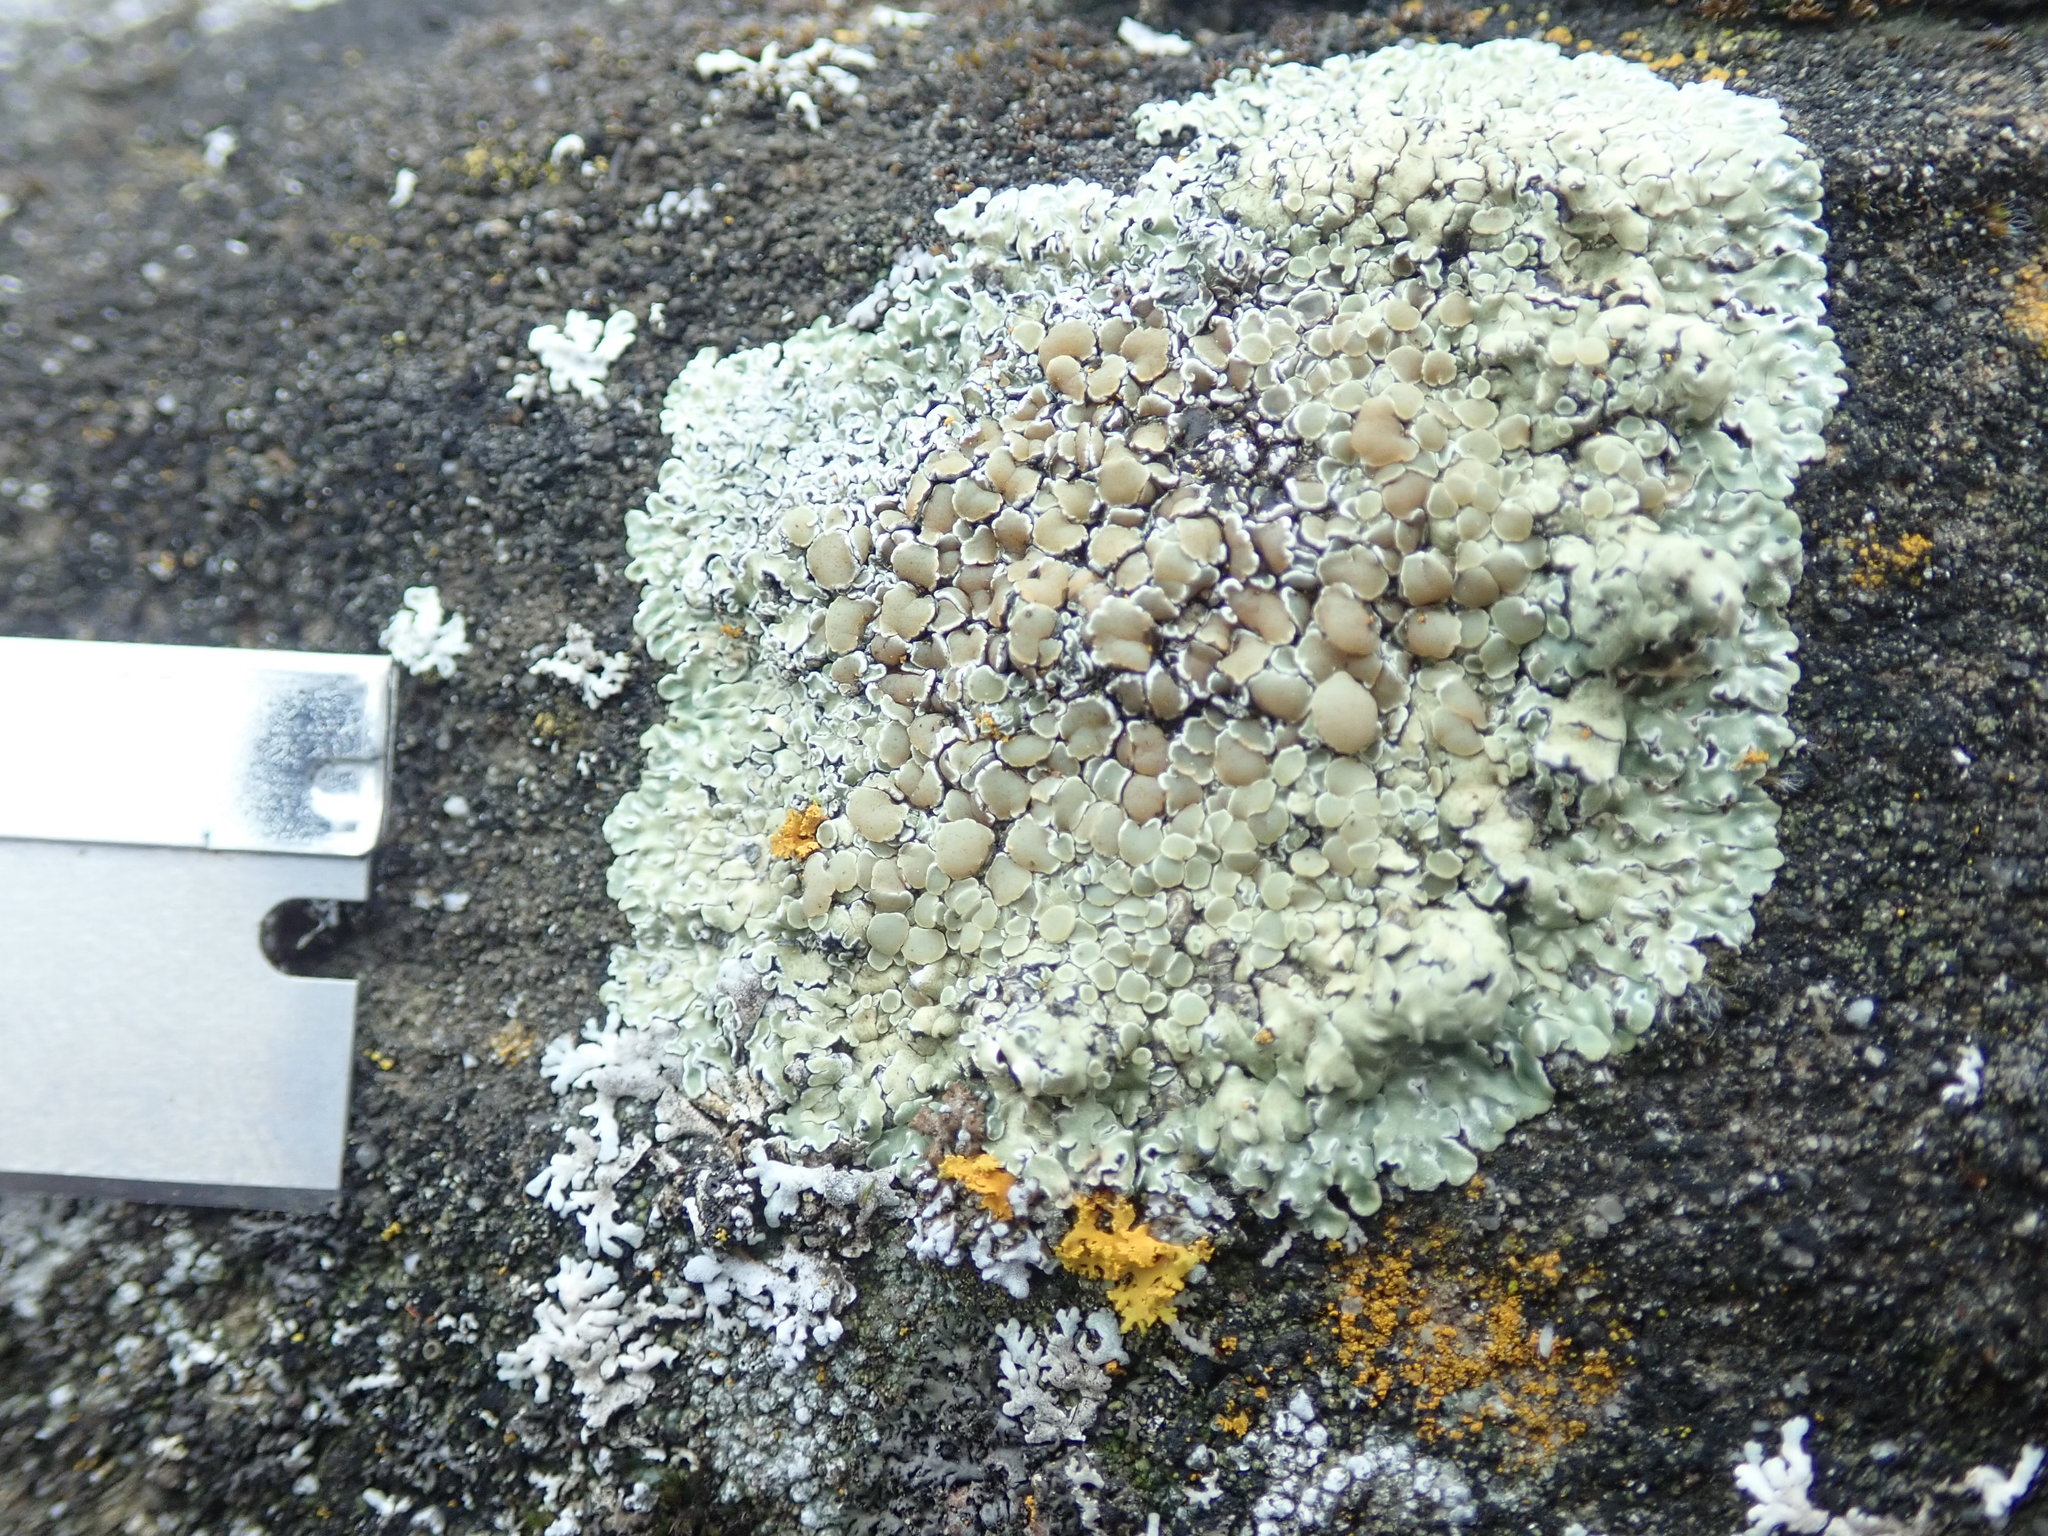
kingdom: Fungi
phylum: Ascomycota
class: Lecanoromycetes
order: Lecanorales
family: Lecanoraceae
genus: Protoparmeliopsis
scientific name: Protoparmeliopsis muralis
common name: Stonewall rim lichen
